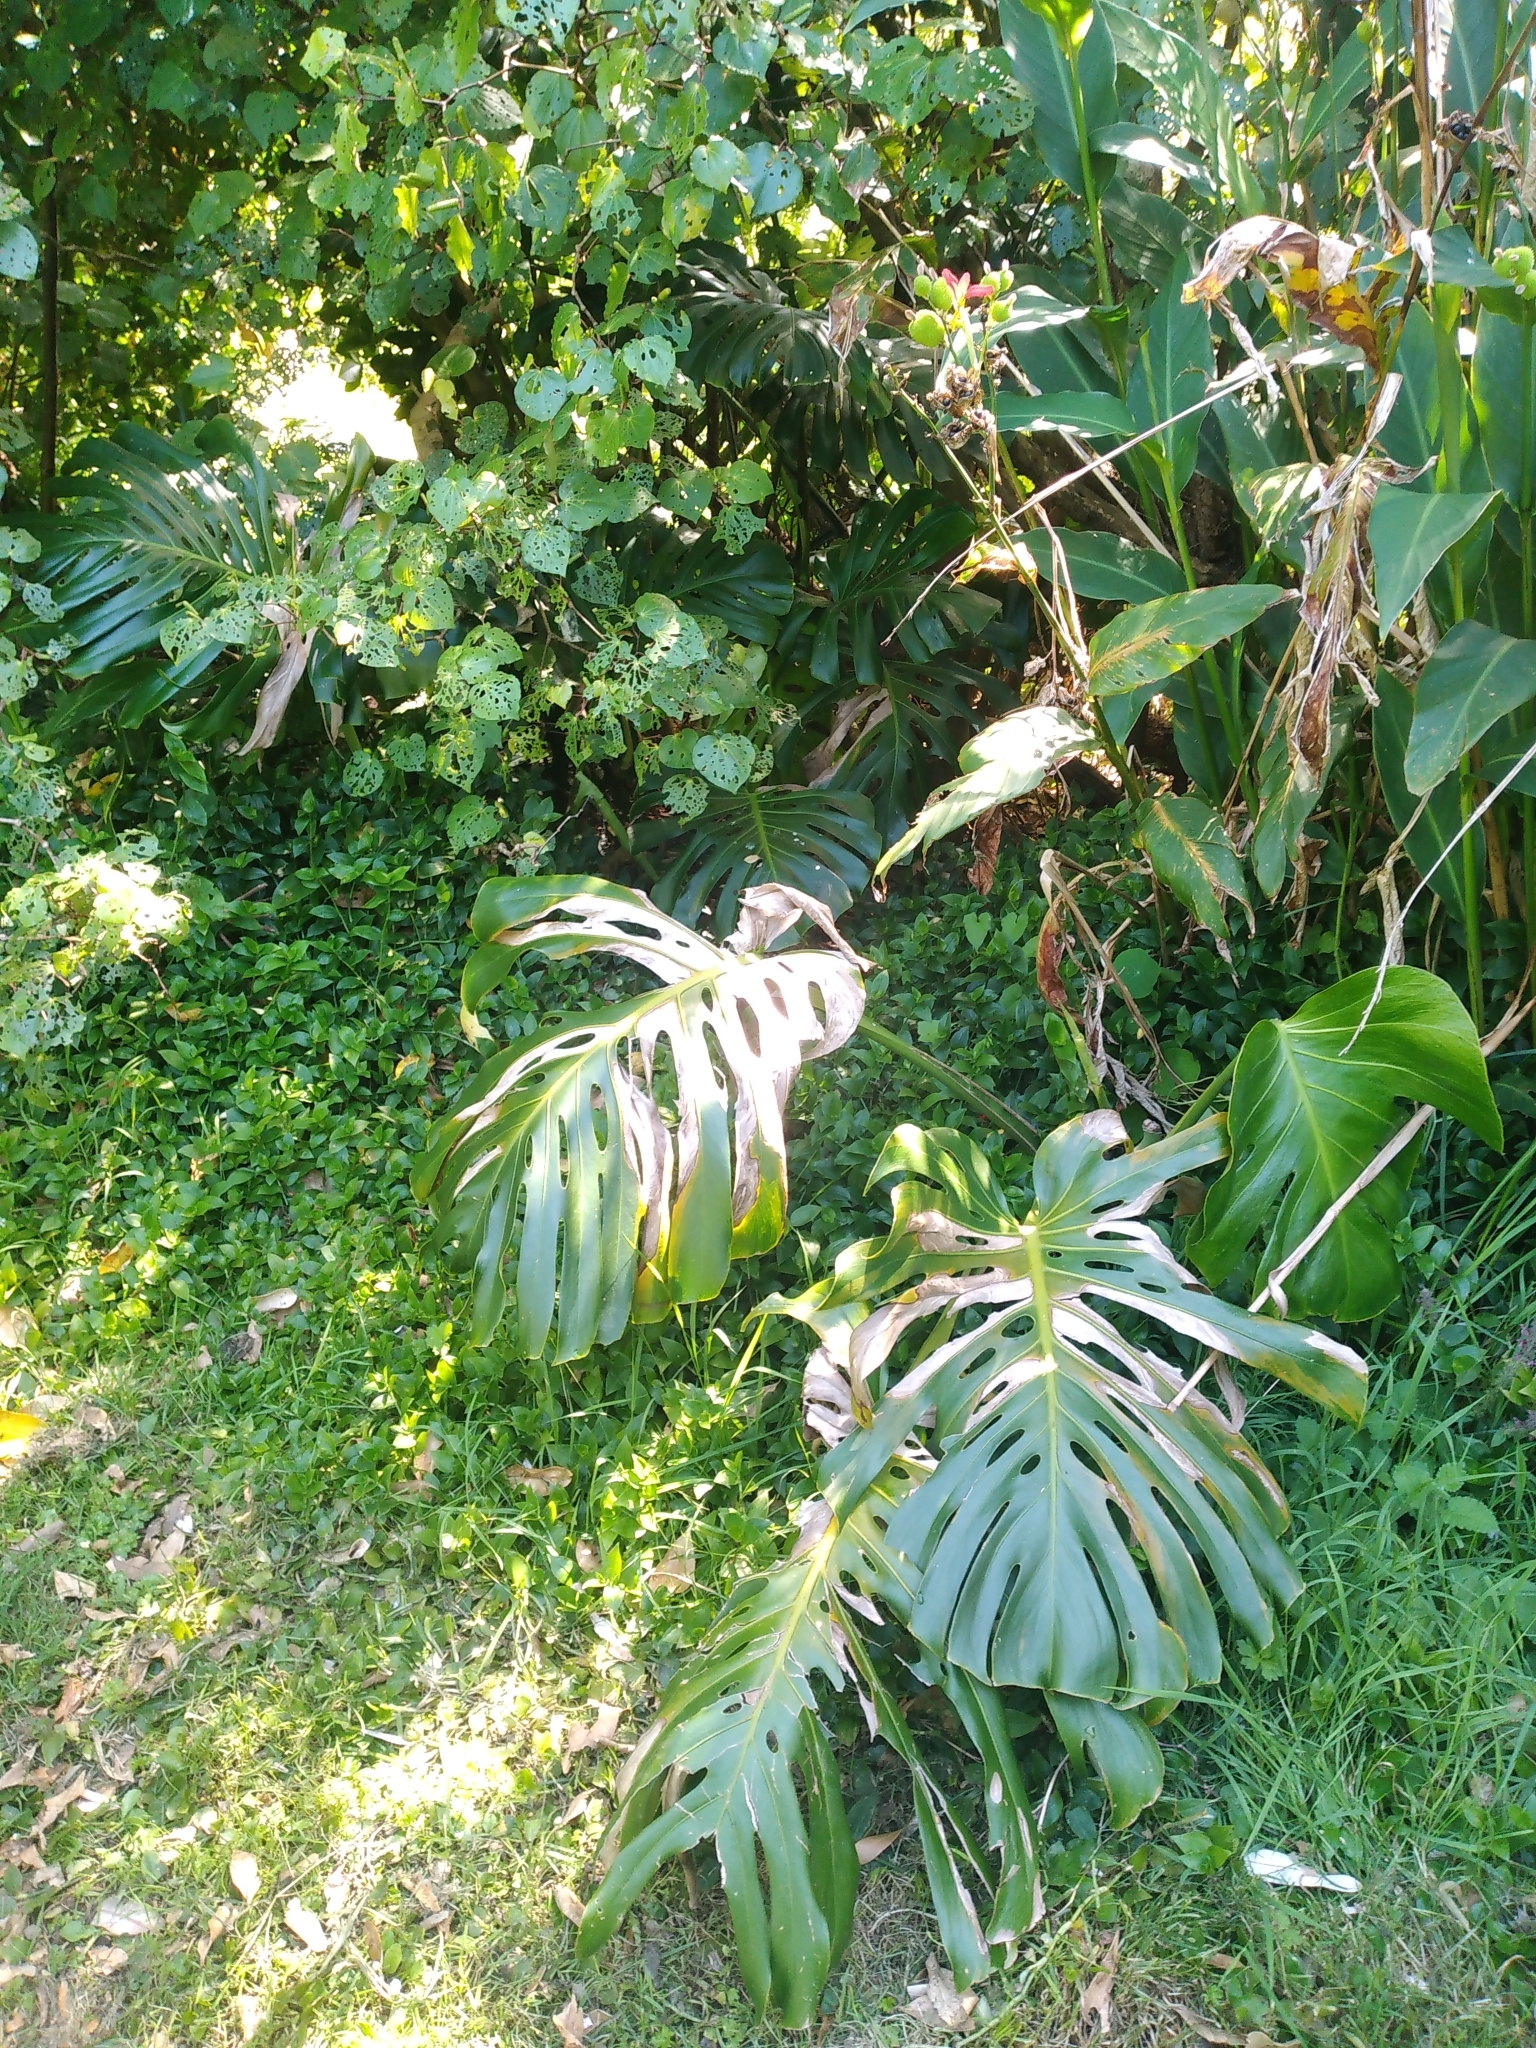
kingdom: Plantae
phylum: Tracheophyta
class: Liliopsida
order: Alismatales
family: Araceae
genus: Monstera
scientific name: Monstera deliciosa
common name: Cut-leaf-philodendron
